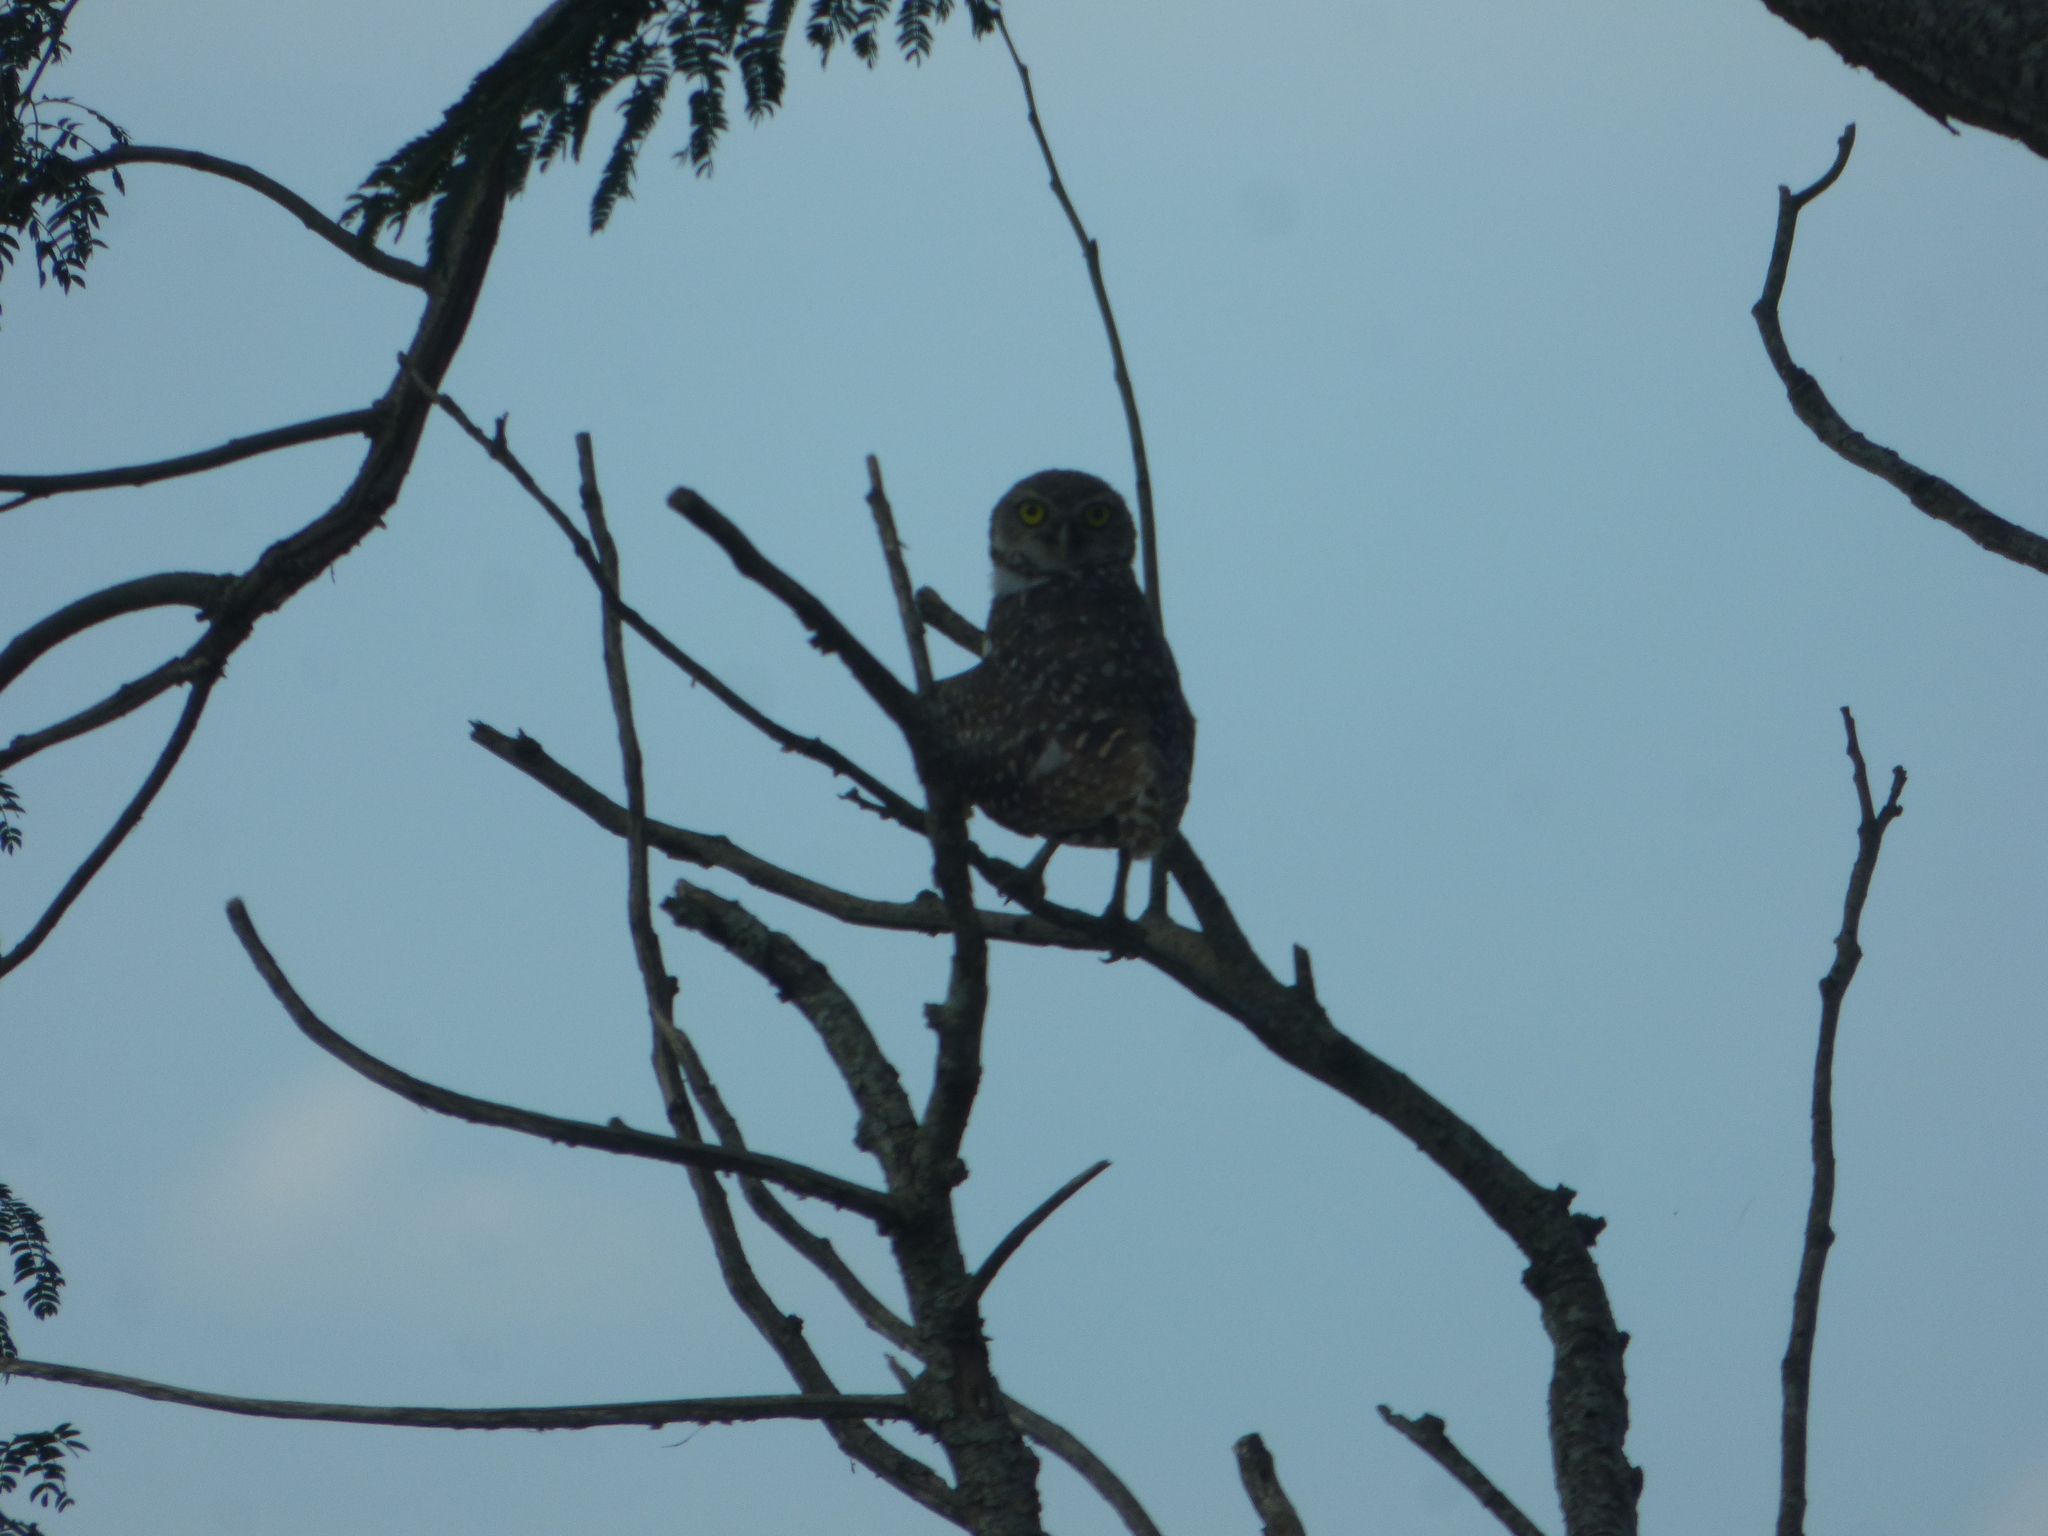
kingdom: Animalia
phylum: Chordata
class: Aves
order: Strigiformes
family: Strigidae
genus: Athene
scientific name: Athene cunicularia
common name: Burrowing owl
